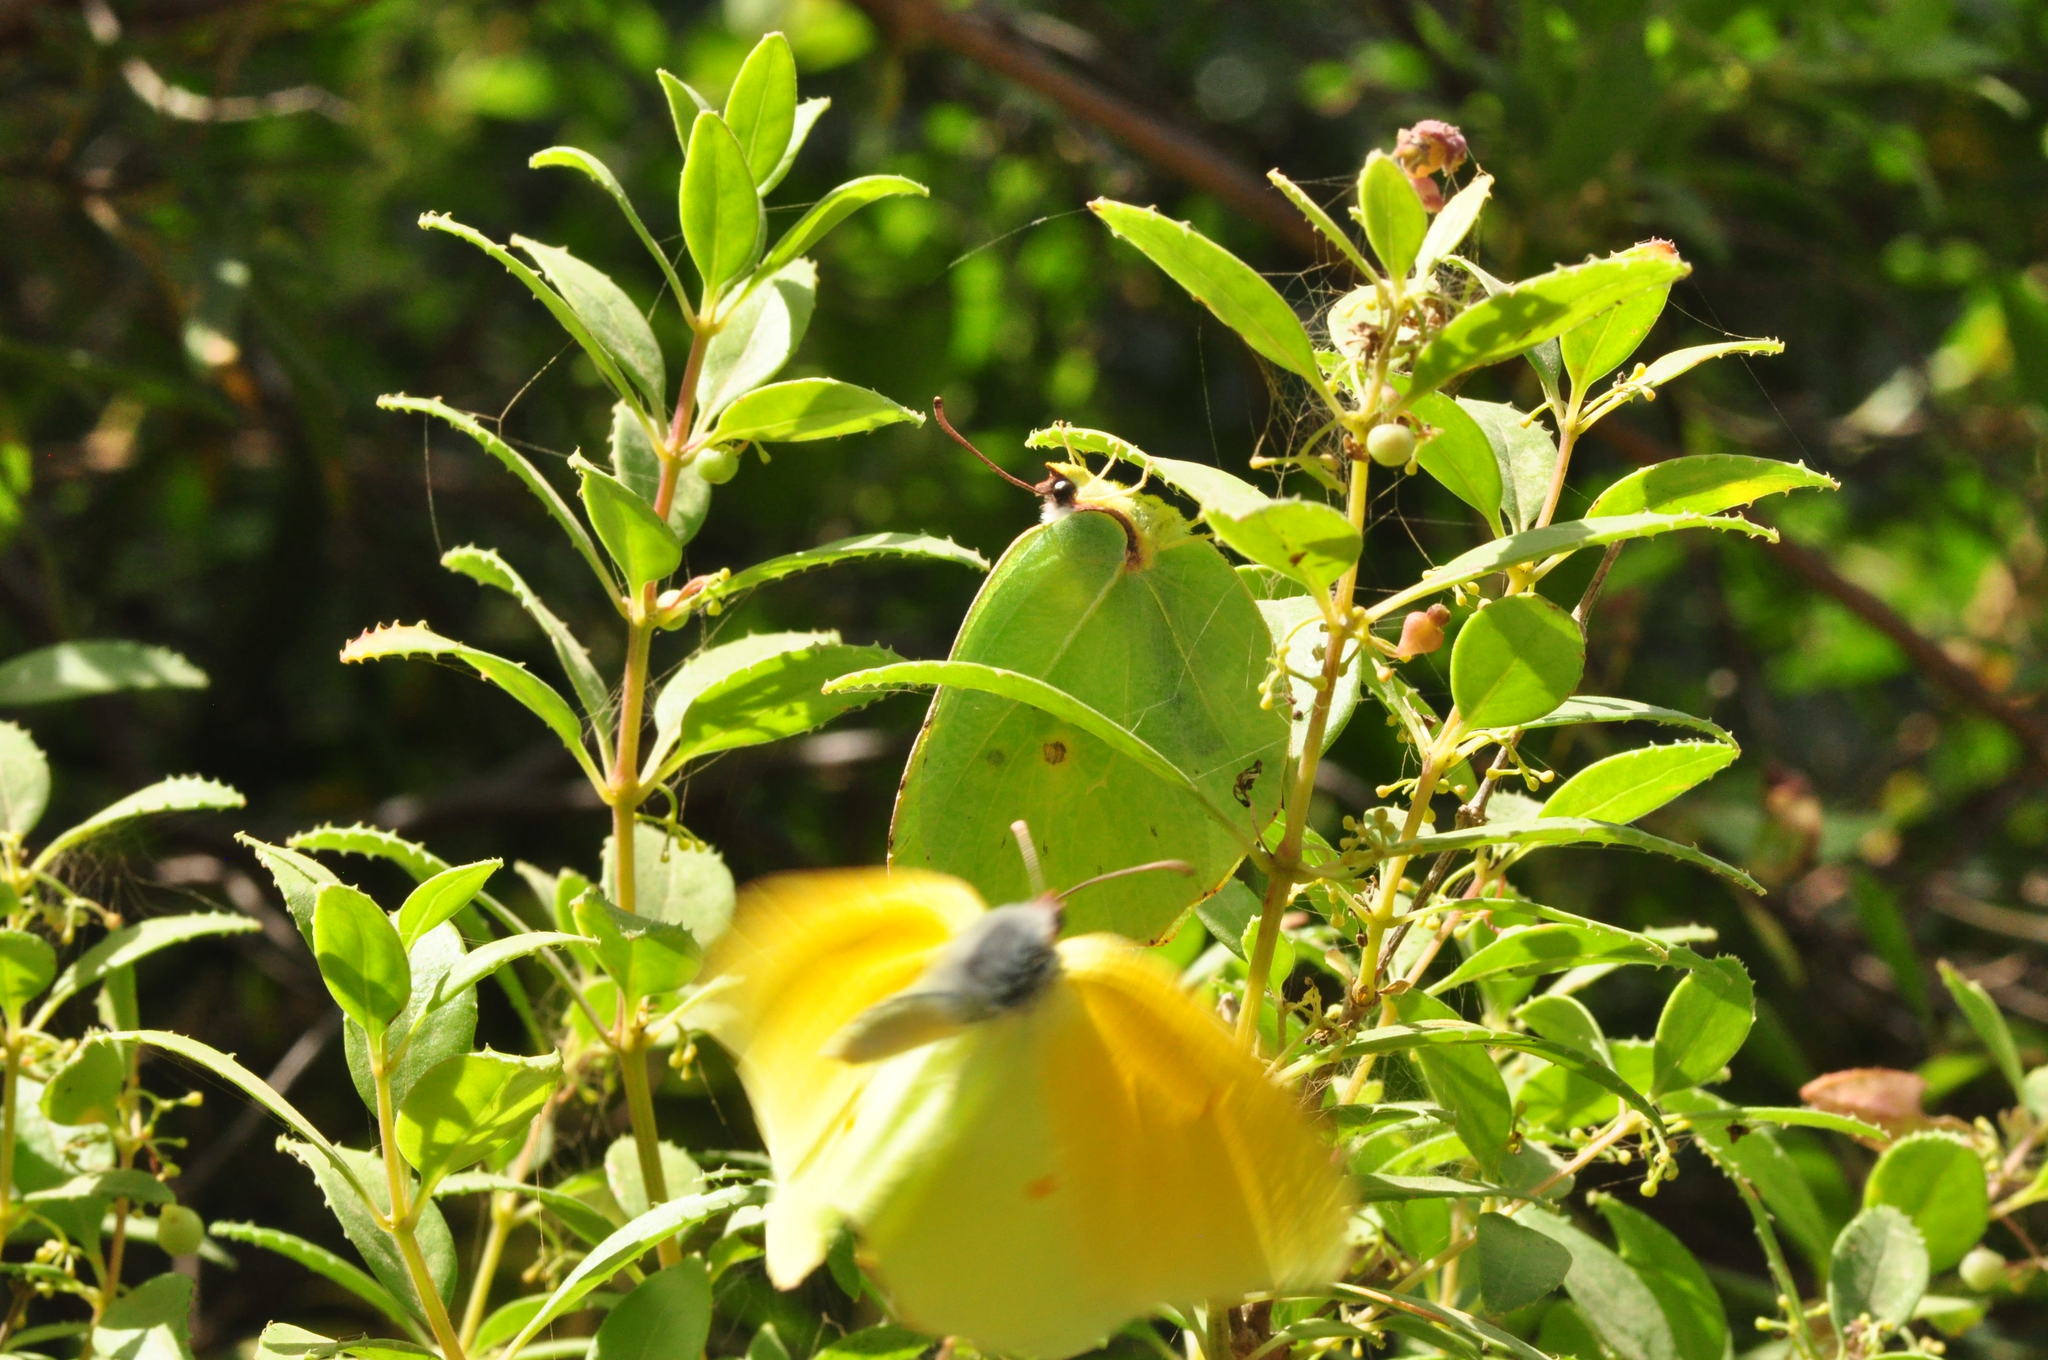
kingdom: Animalia
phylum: Arthropoda
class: Insecta
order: Lepidoptera
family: Pieridae
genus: Gonepteryx
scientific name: Gonepteryx cleobule
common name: Canary brimstone
